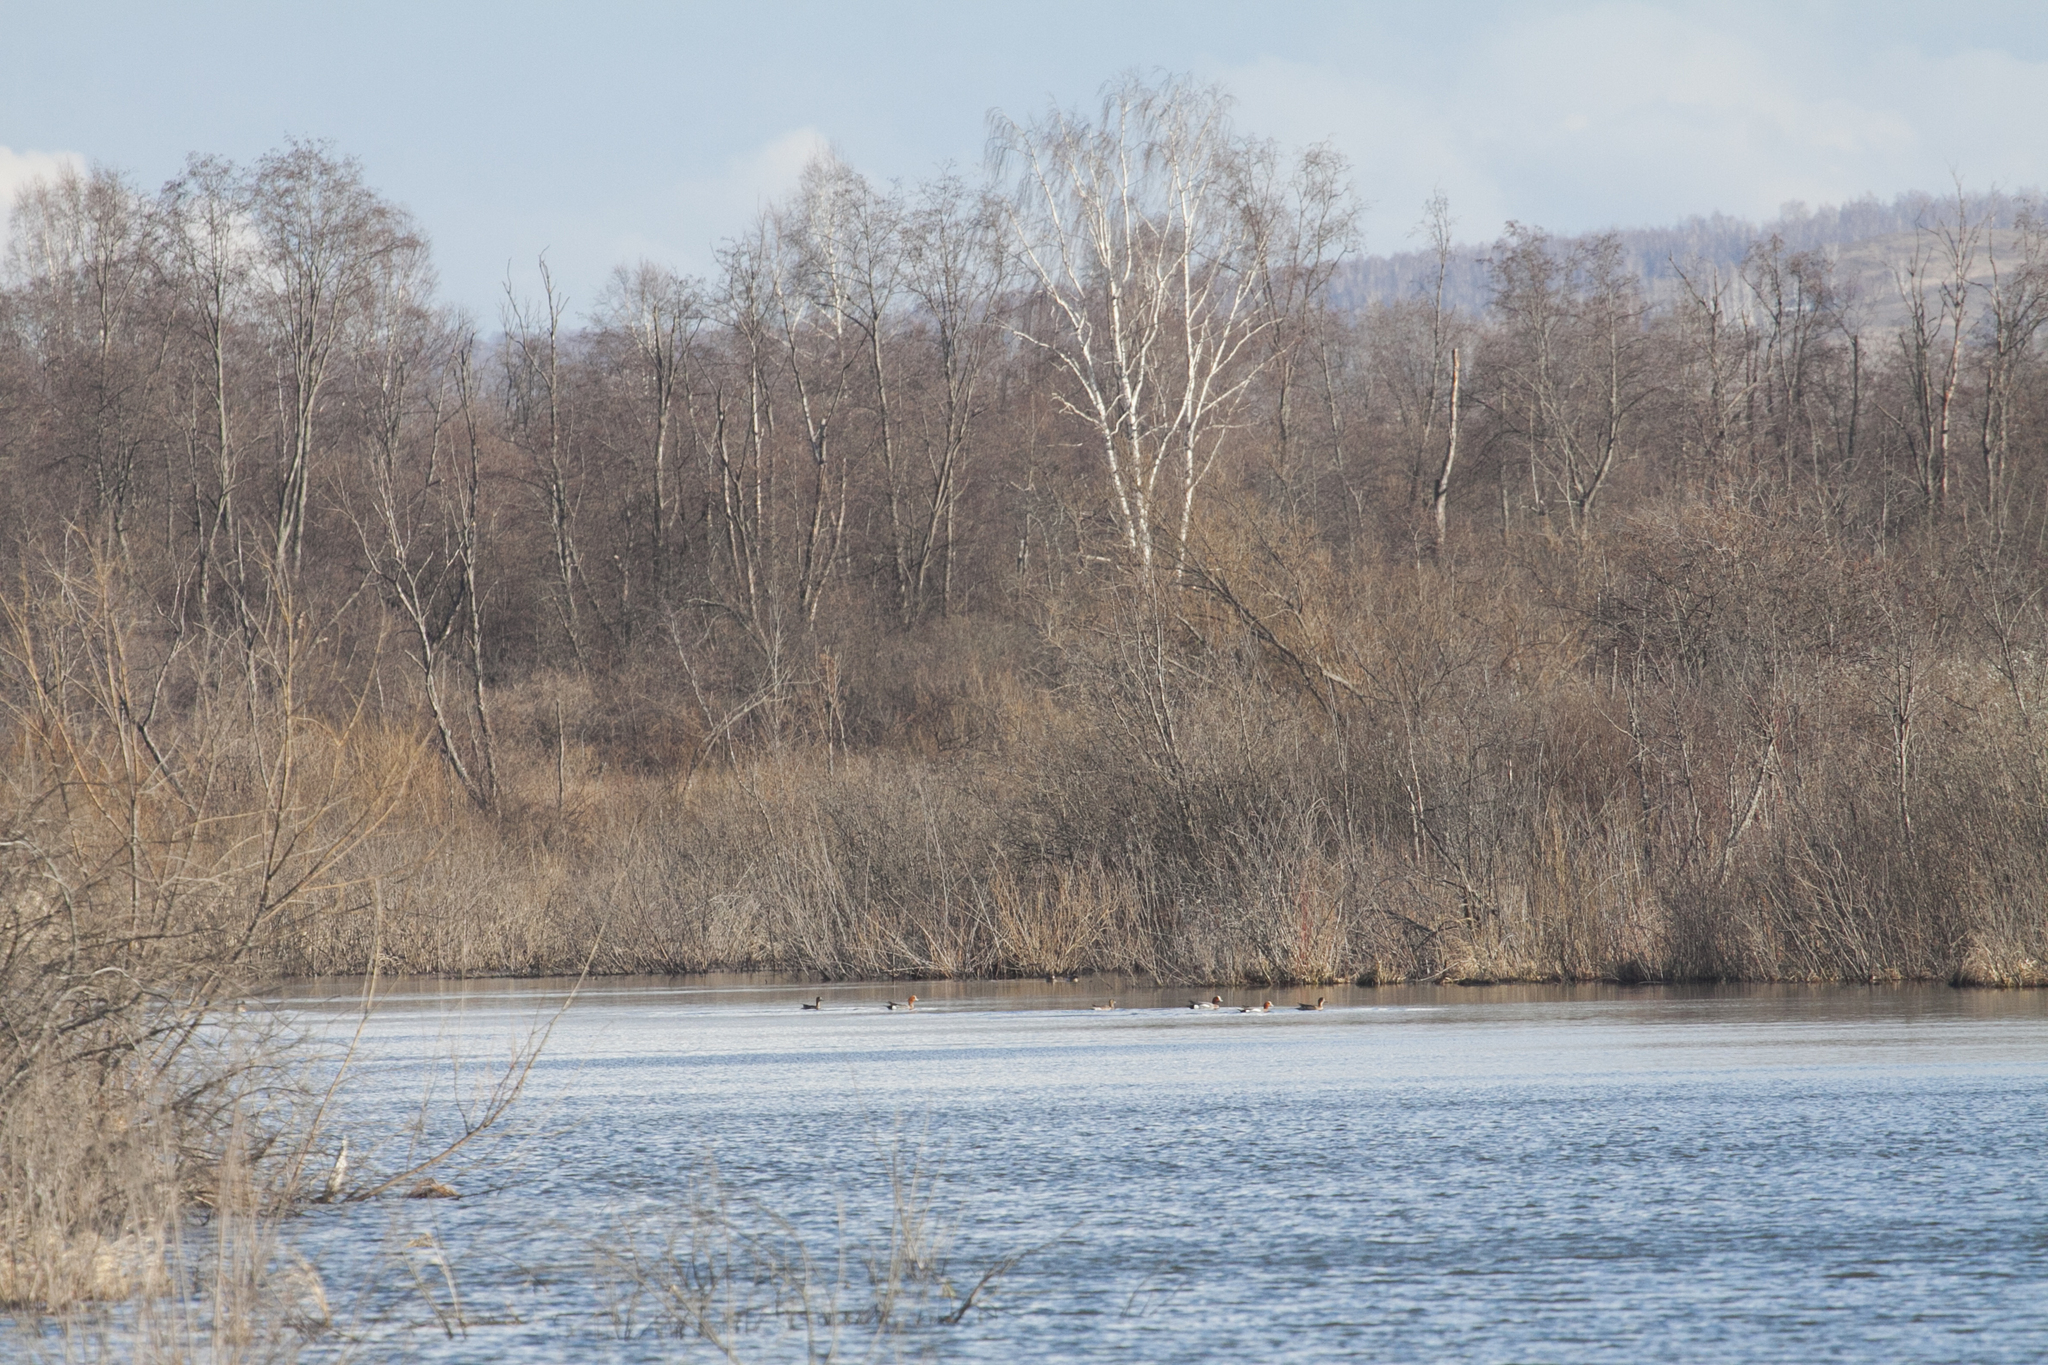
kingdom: Animalia
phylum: Chordata
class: Aves
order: Anseriformes
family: Anatidae
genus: Mareca
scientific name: Mareca penelope
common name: Eurasian wigeon
